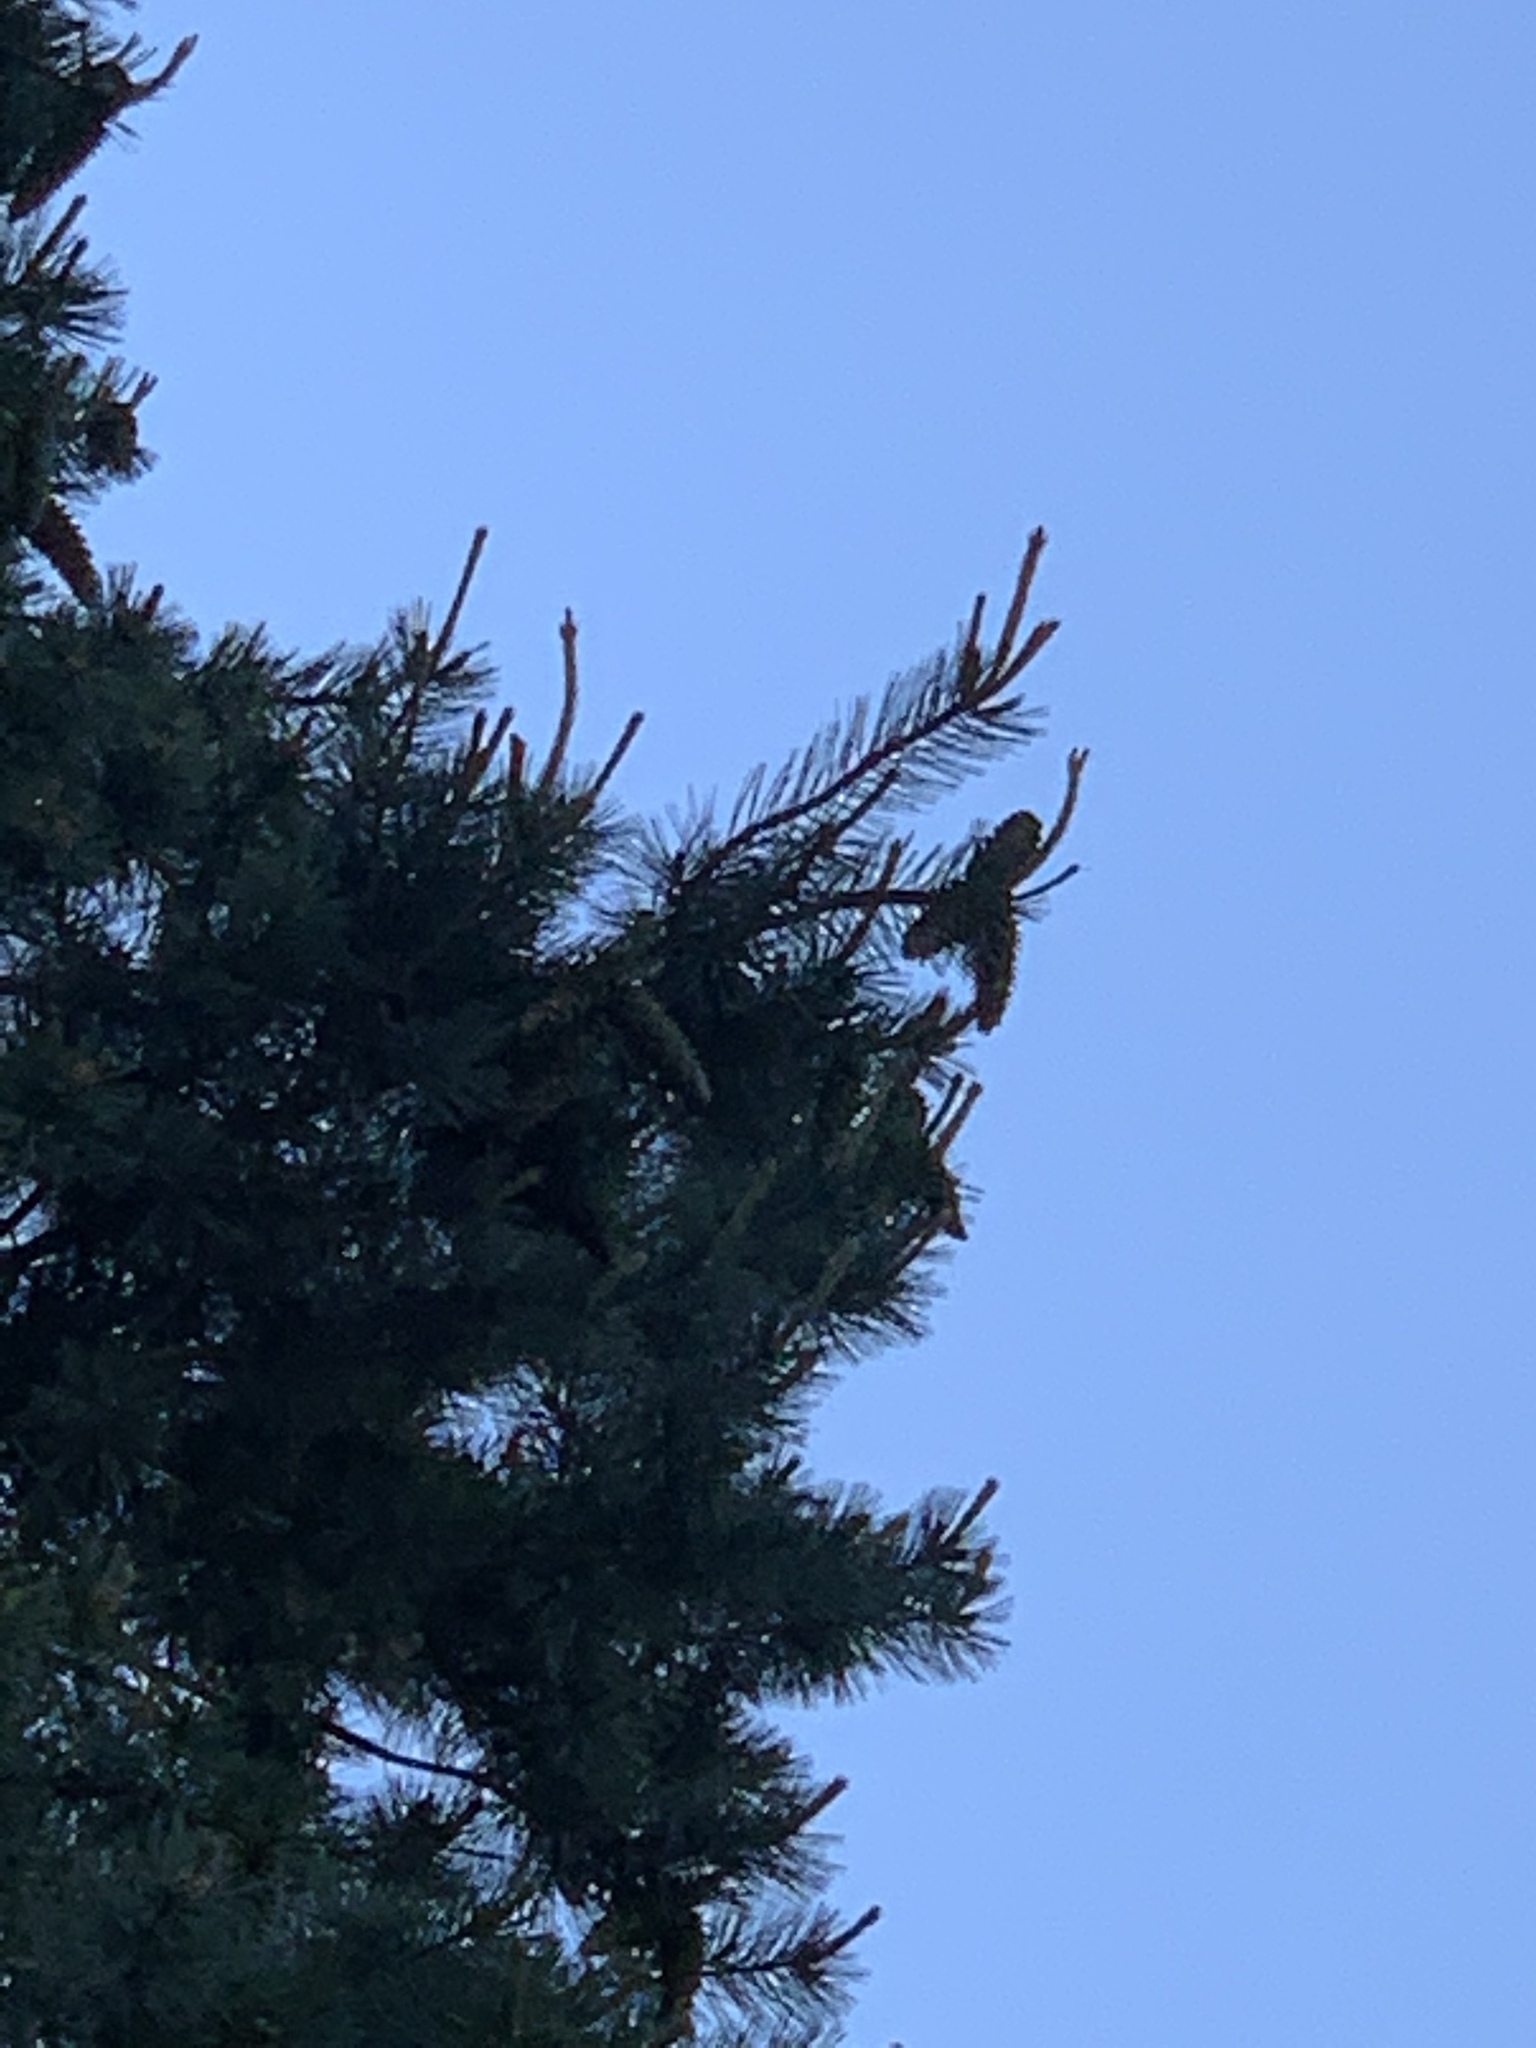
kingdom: Plantae
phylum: Tracheophyta
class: Pinopsida
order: Pinales
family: Pinaceae
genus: Pinus
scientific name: Pinus strobiformis
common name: Southwestern white pine
